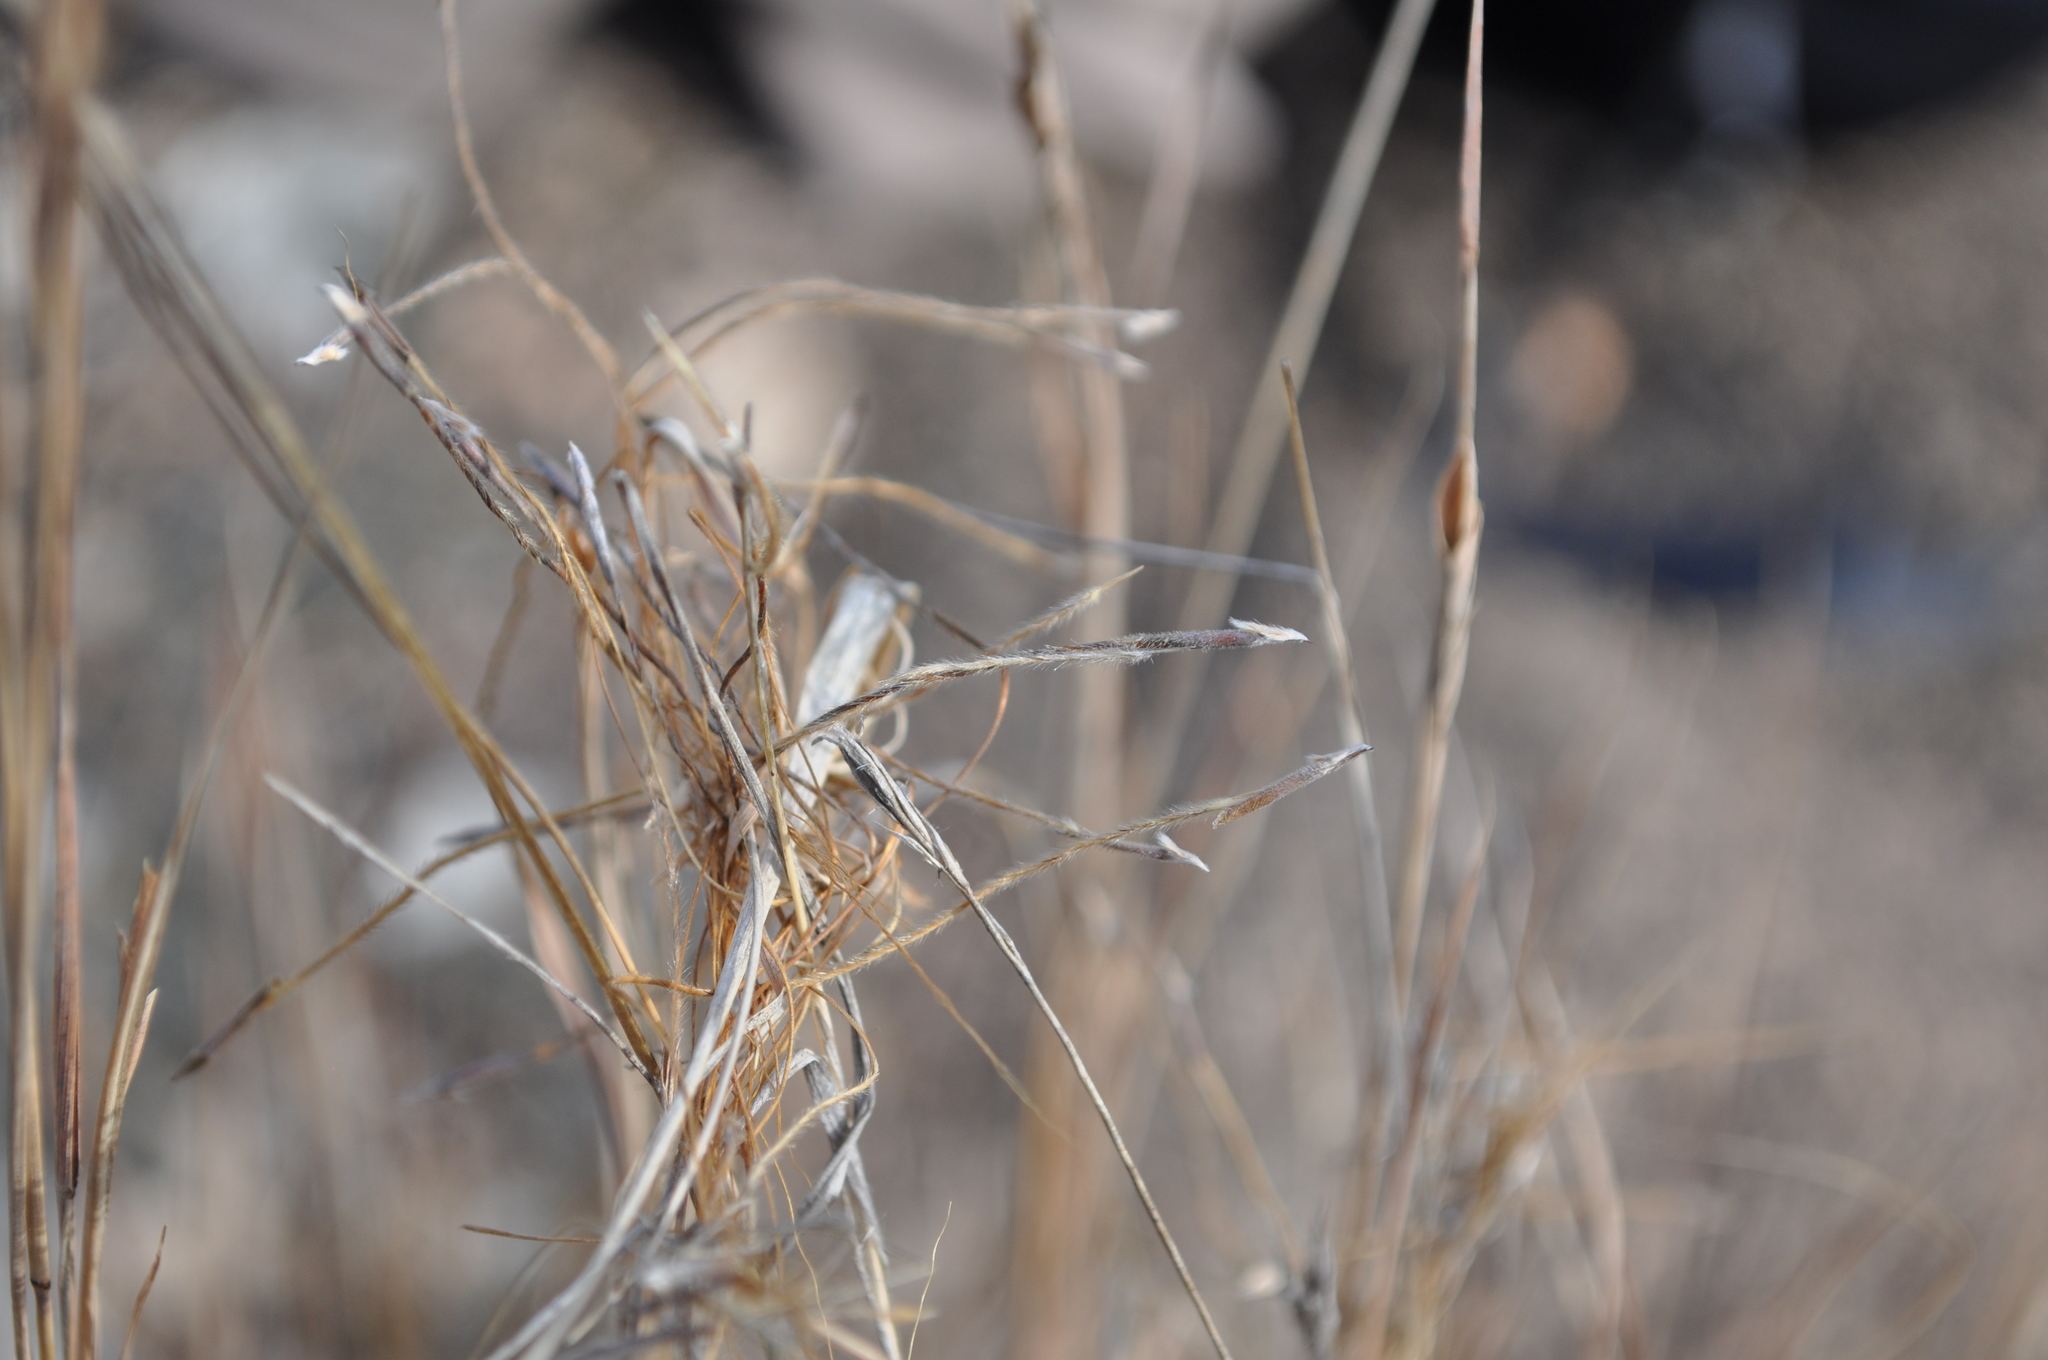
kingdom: Plantae
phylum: Tracheophyta
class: Liliopsida
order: Poales
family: Poaceae
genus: Heteropogon
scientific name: Heteropogon contortus
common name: Tanglehead
